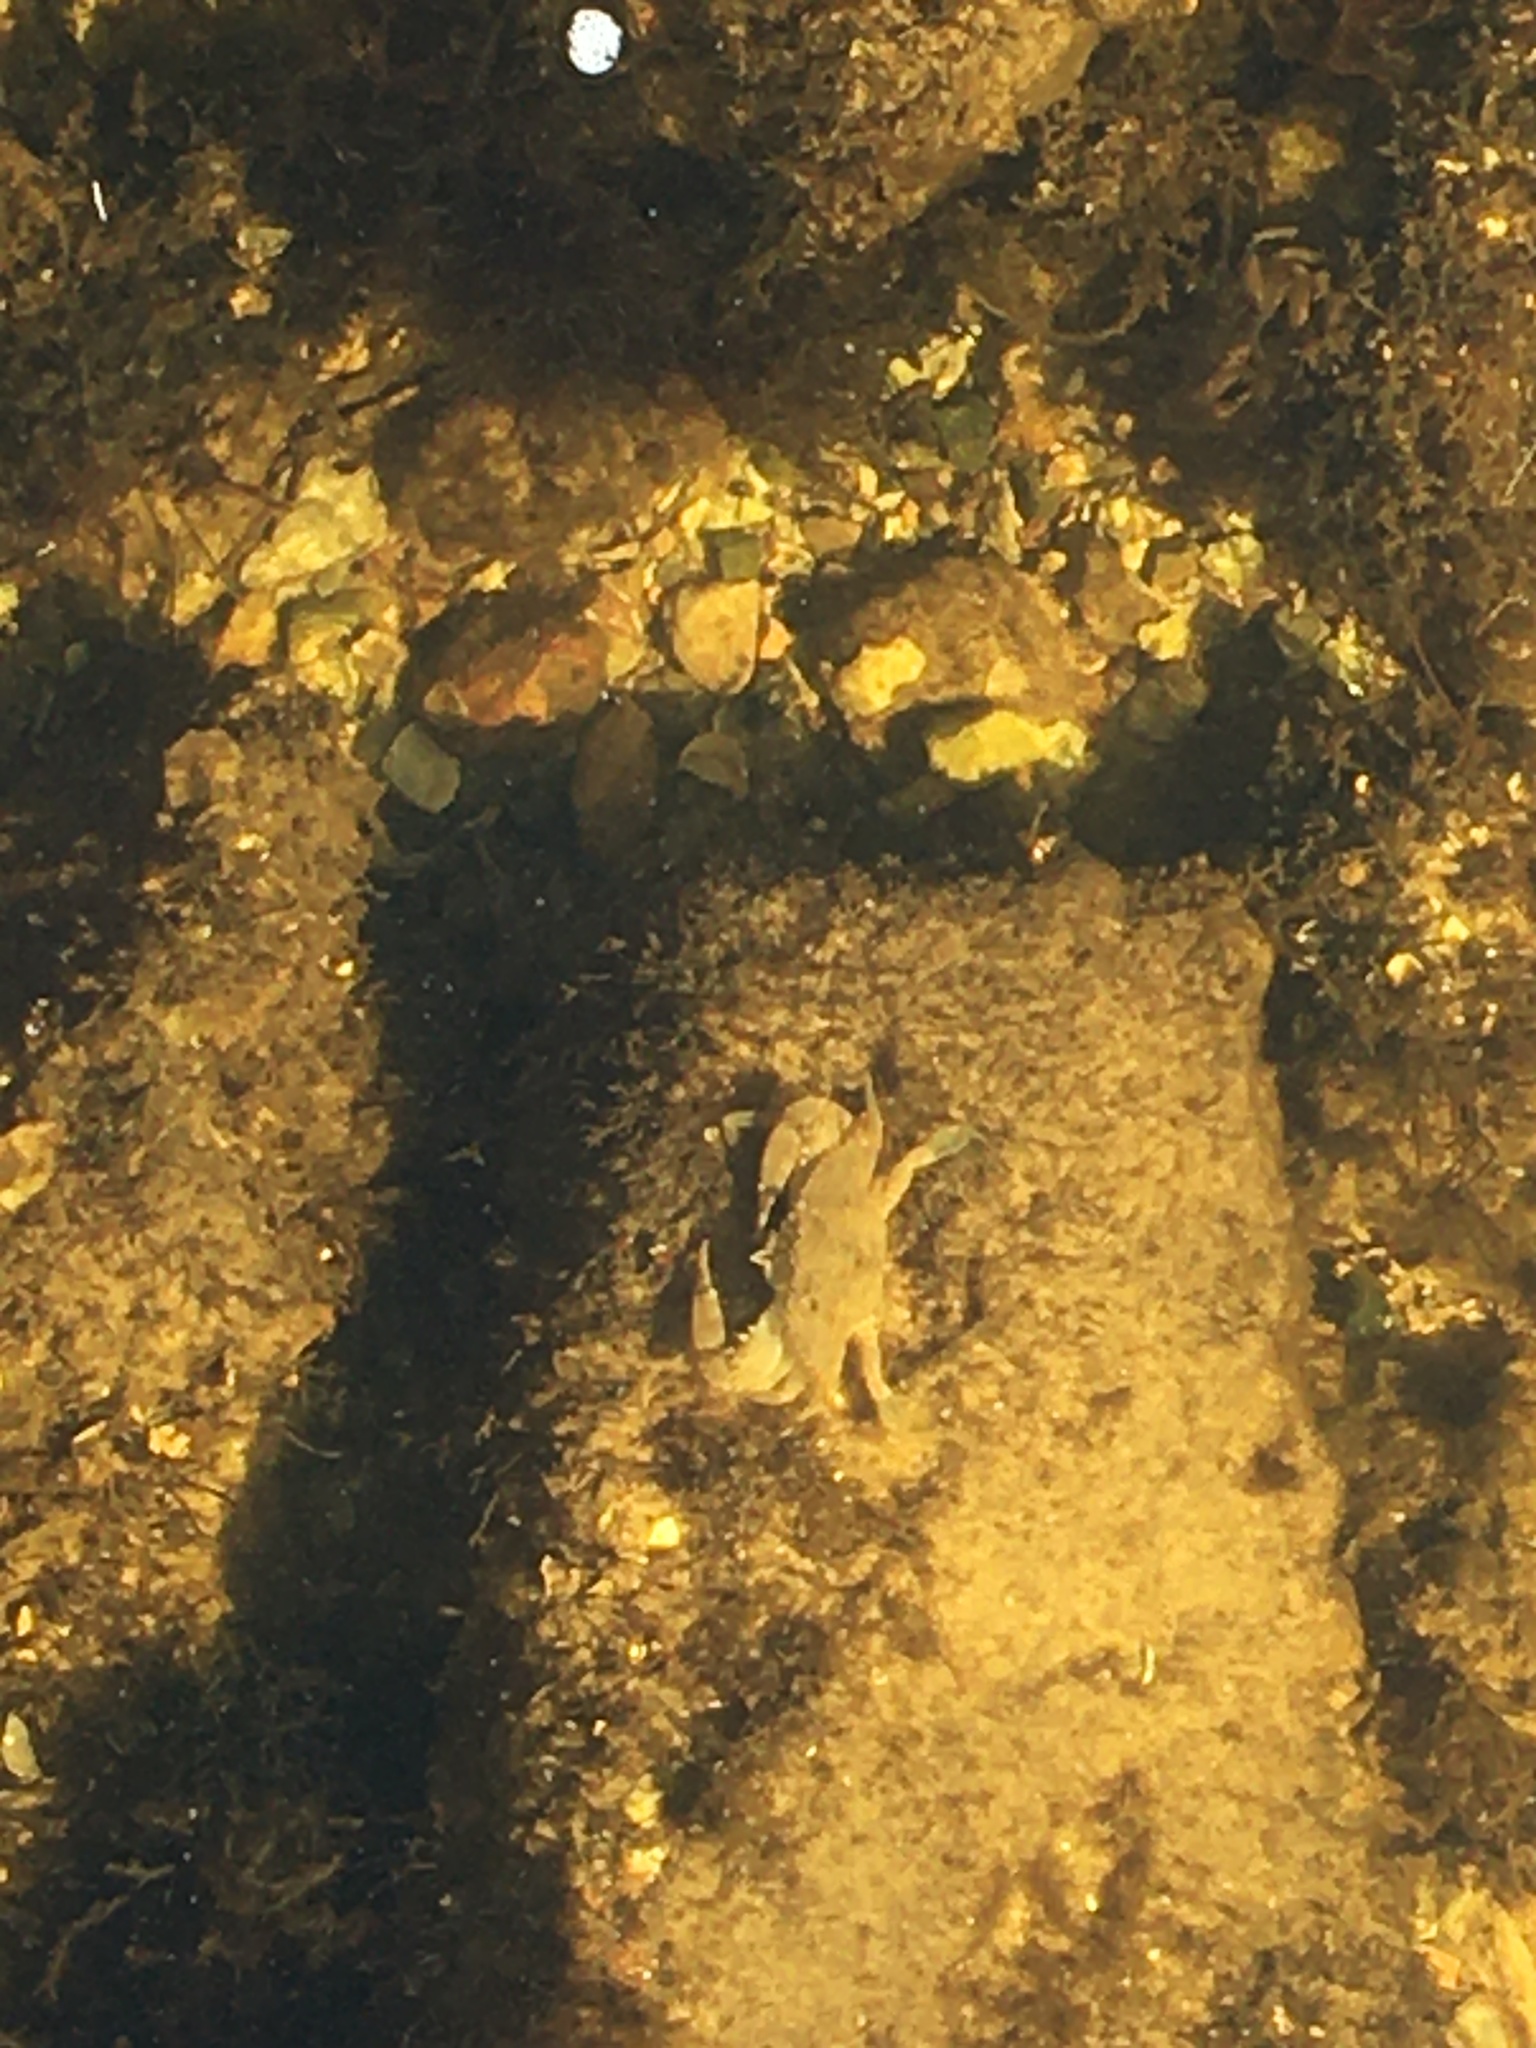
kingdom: Animalia
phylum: Arthropoda
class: Malacostraca
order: Decapoda
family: Portunidae
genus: Callinectes
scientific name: Callinectes sapidus
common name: Blue crab
